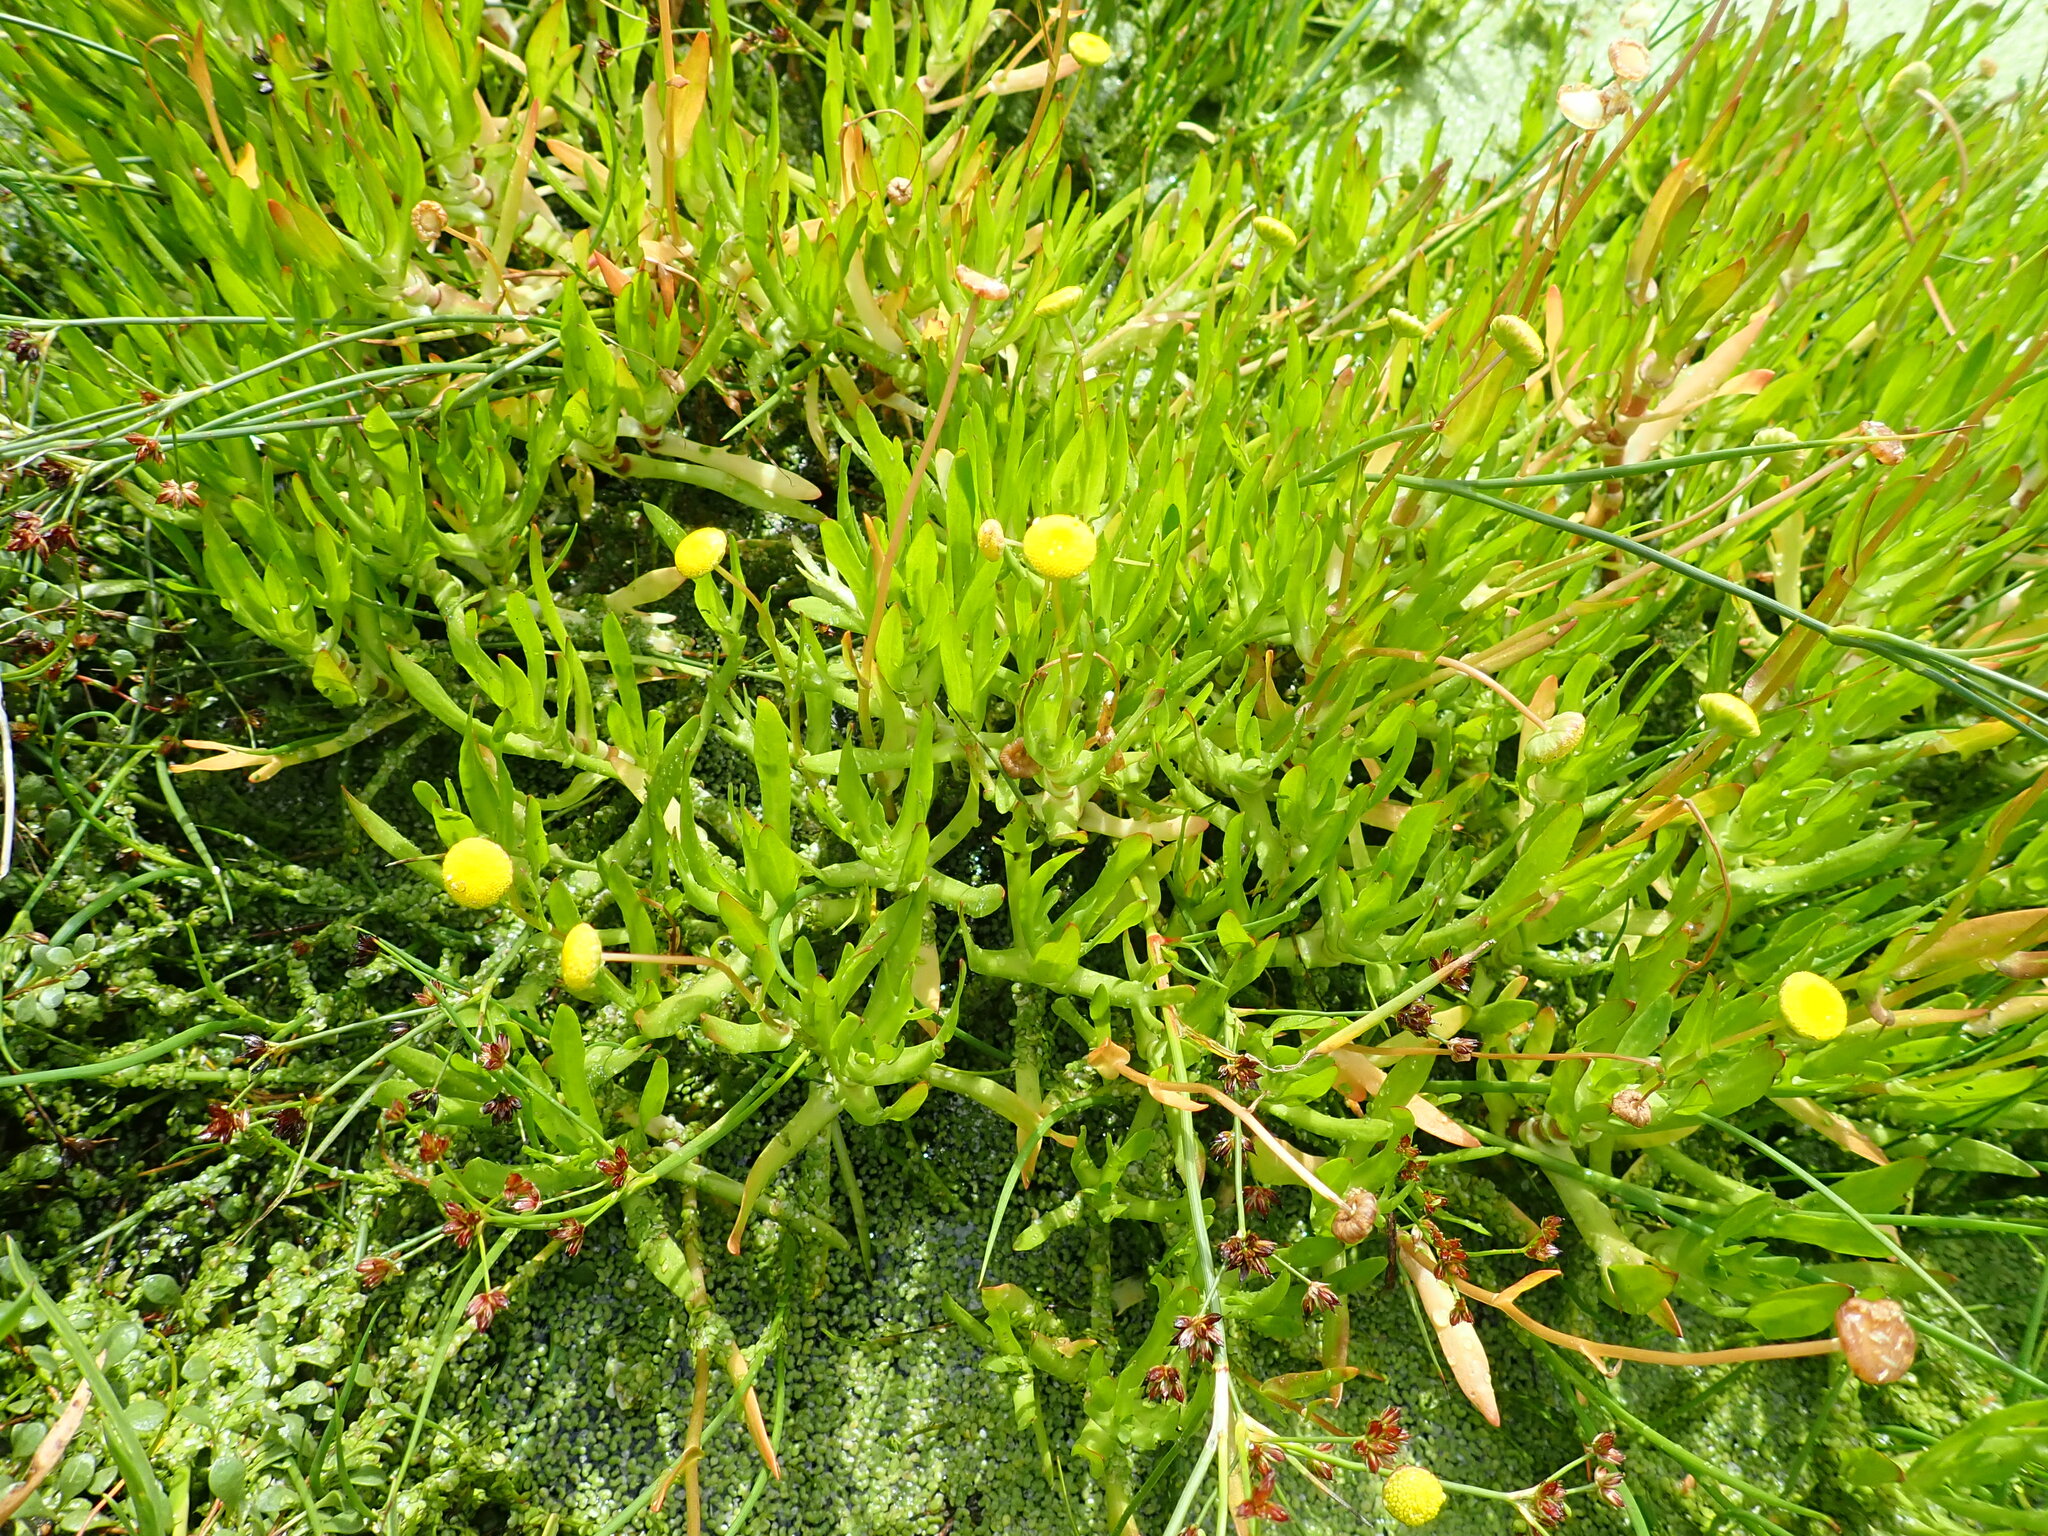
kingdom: Plantae
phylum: Tracheophyta
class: Magnoliopsida
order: Asterales
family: Asteraceae
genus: Cotula
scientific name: Cotula coronopifolia
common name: Buttonweed
